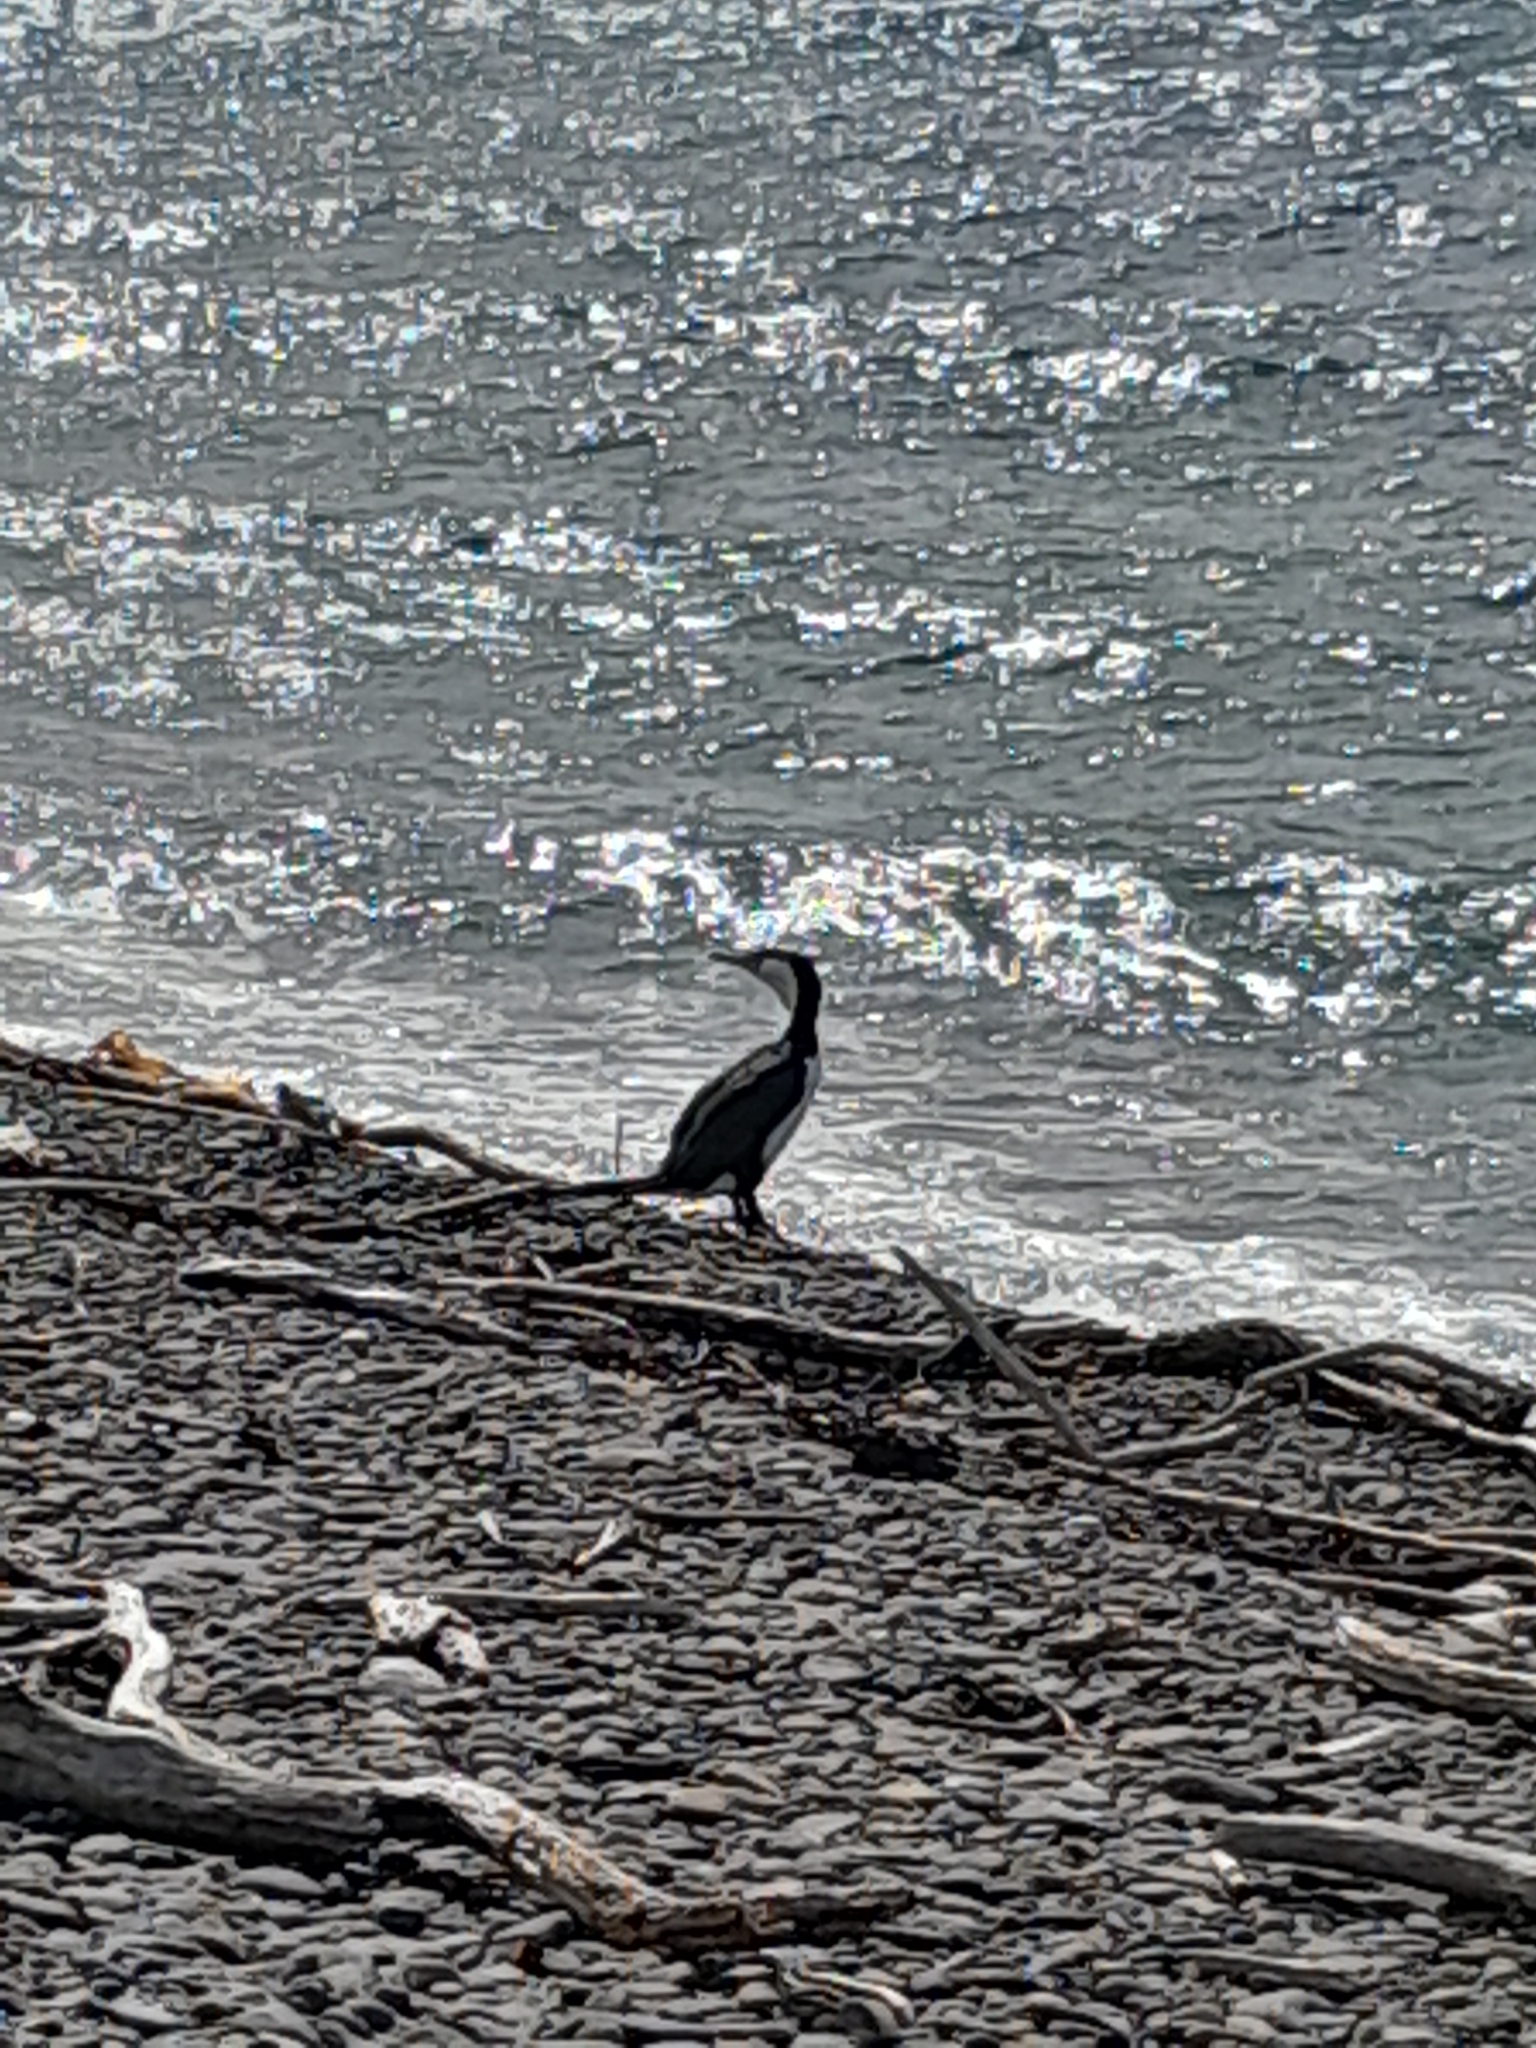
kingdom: Animalia
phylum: Chordata
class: Aves
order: Suliformes
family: Phalacrocoracidae
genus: Phalacrocorax
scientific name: Phalacrocorax varius
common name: Pied cormorant
